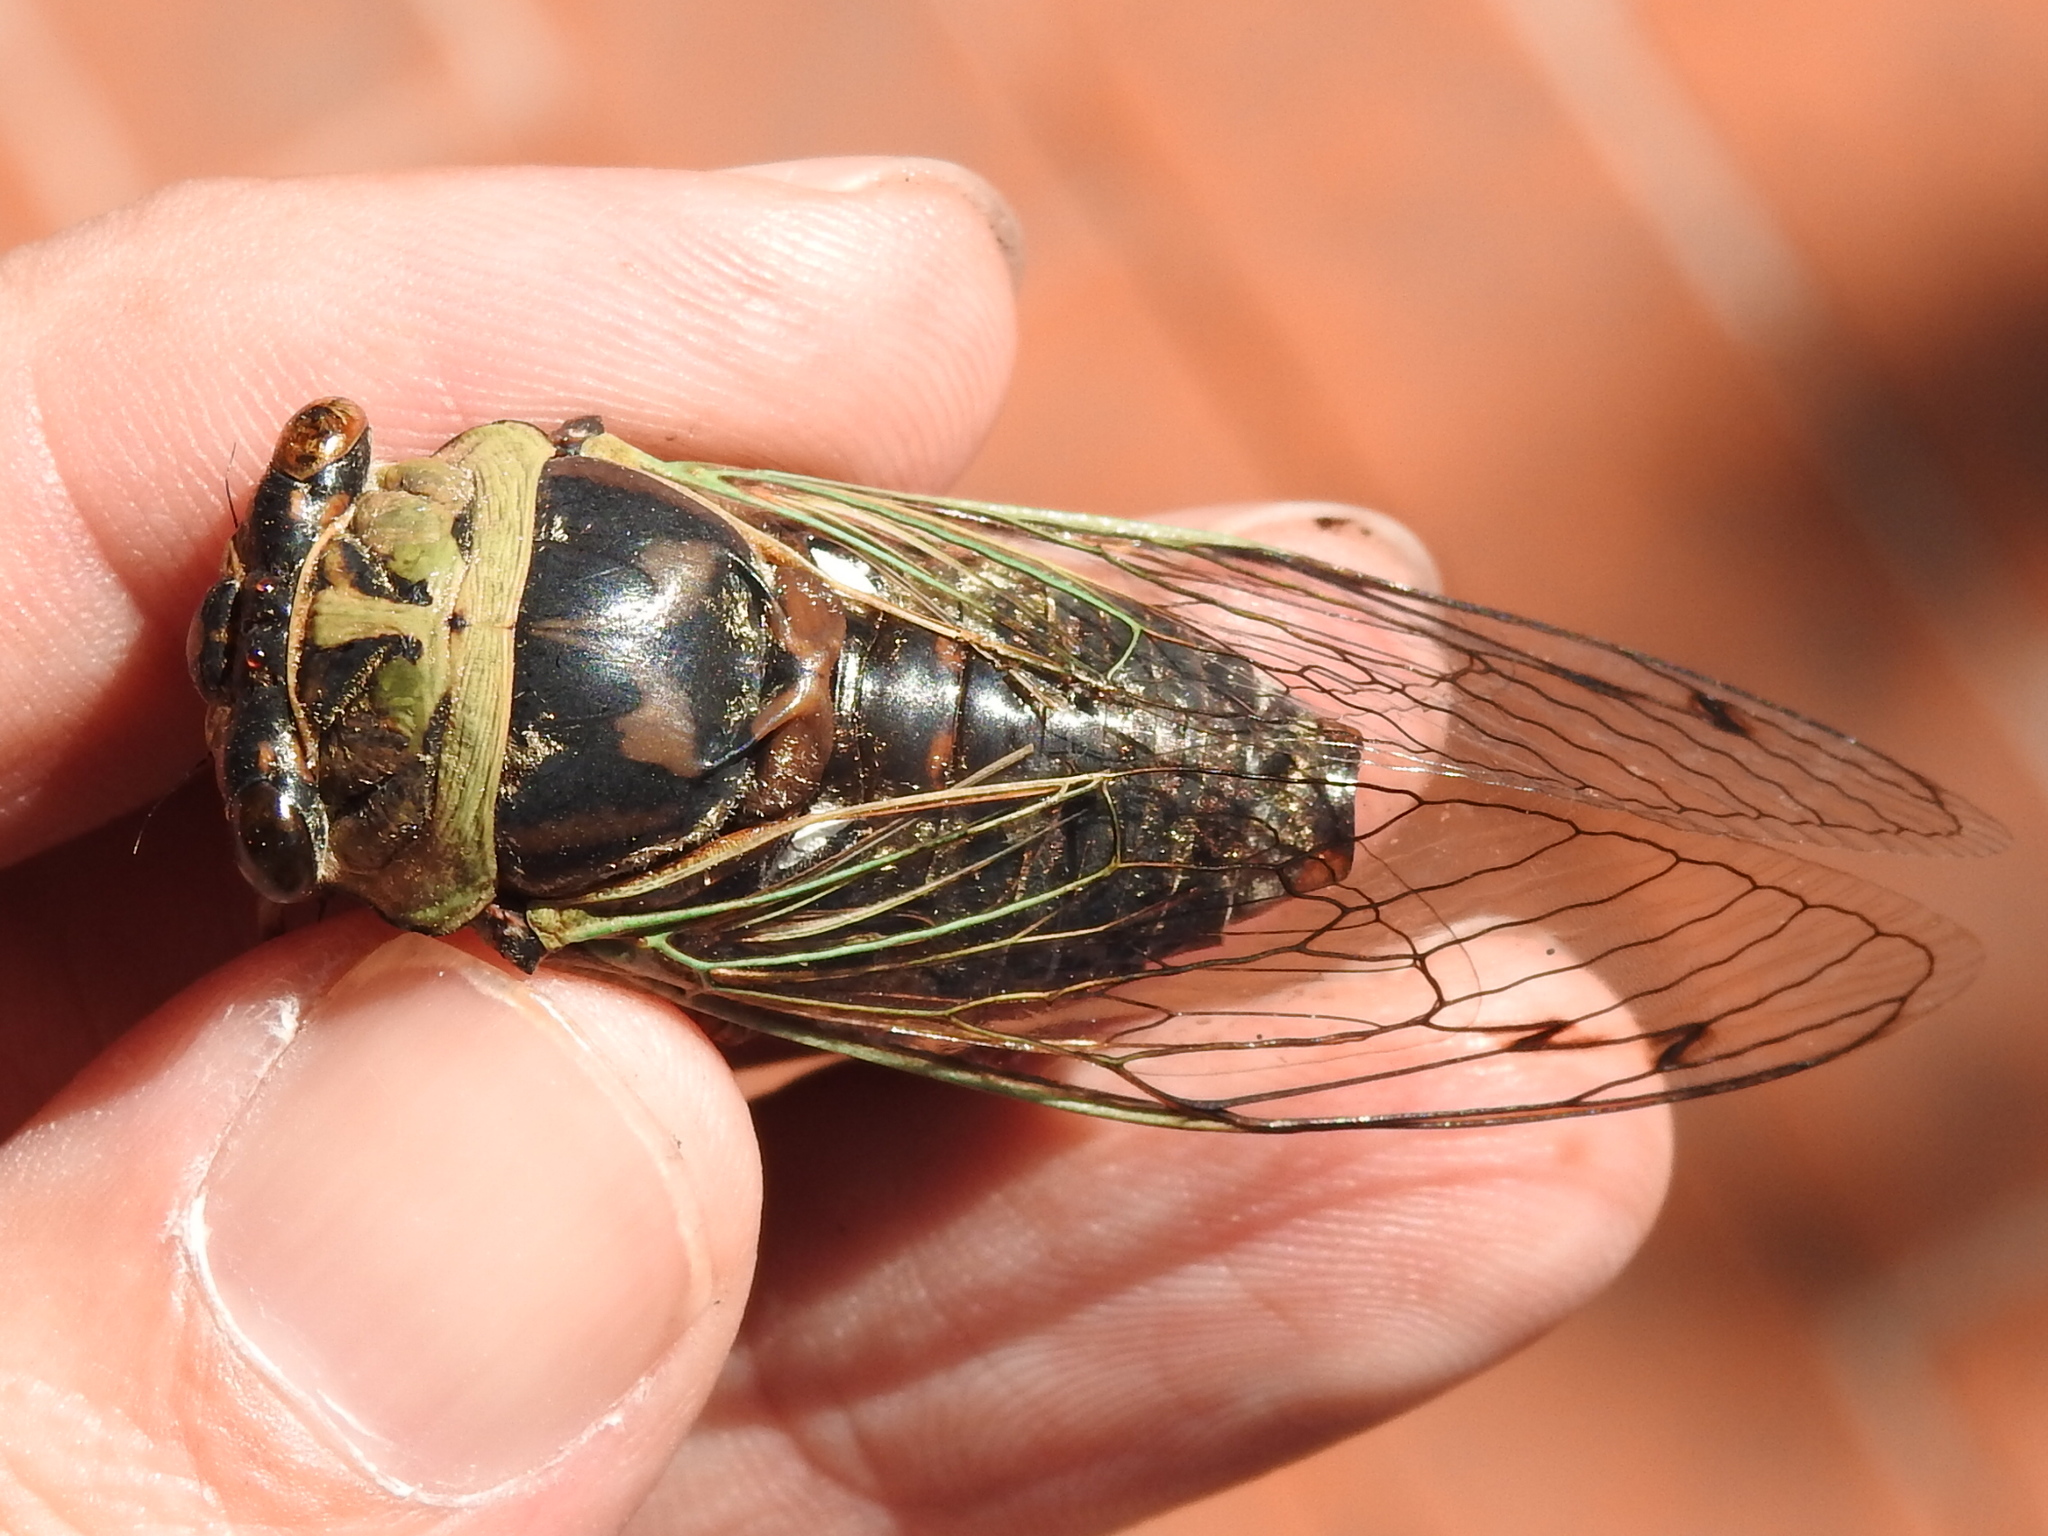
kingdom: Animalia
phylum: Arthropoda
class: Insecta
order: Hemiptera
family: Cicadidae
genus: Megatibicen
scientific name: Megatibicen resh
